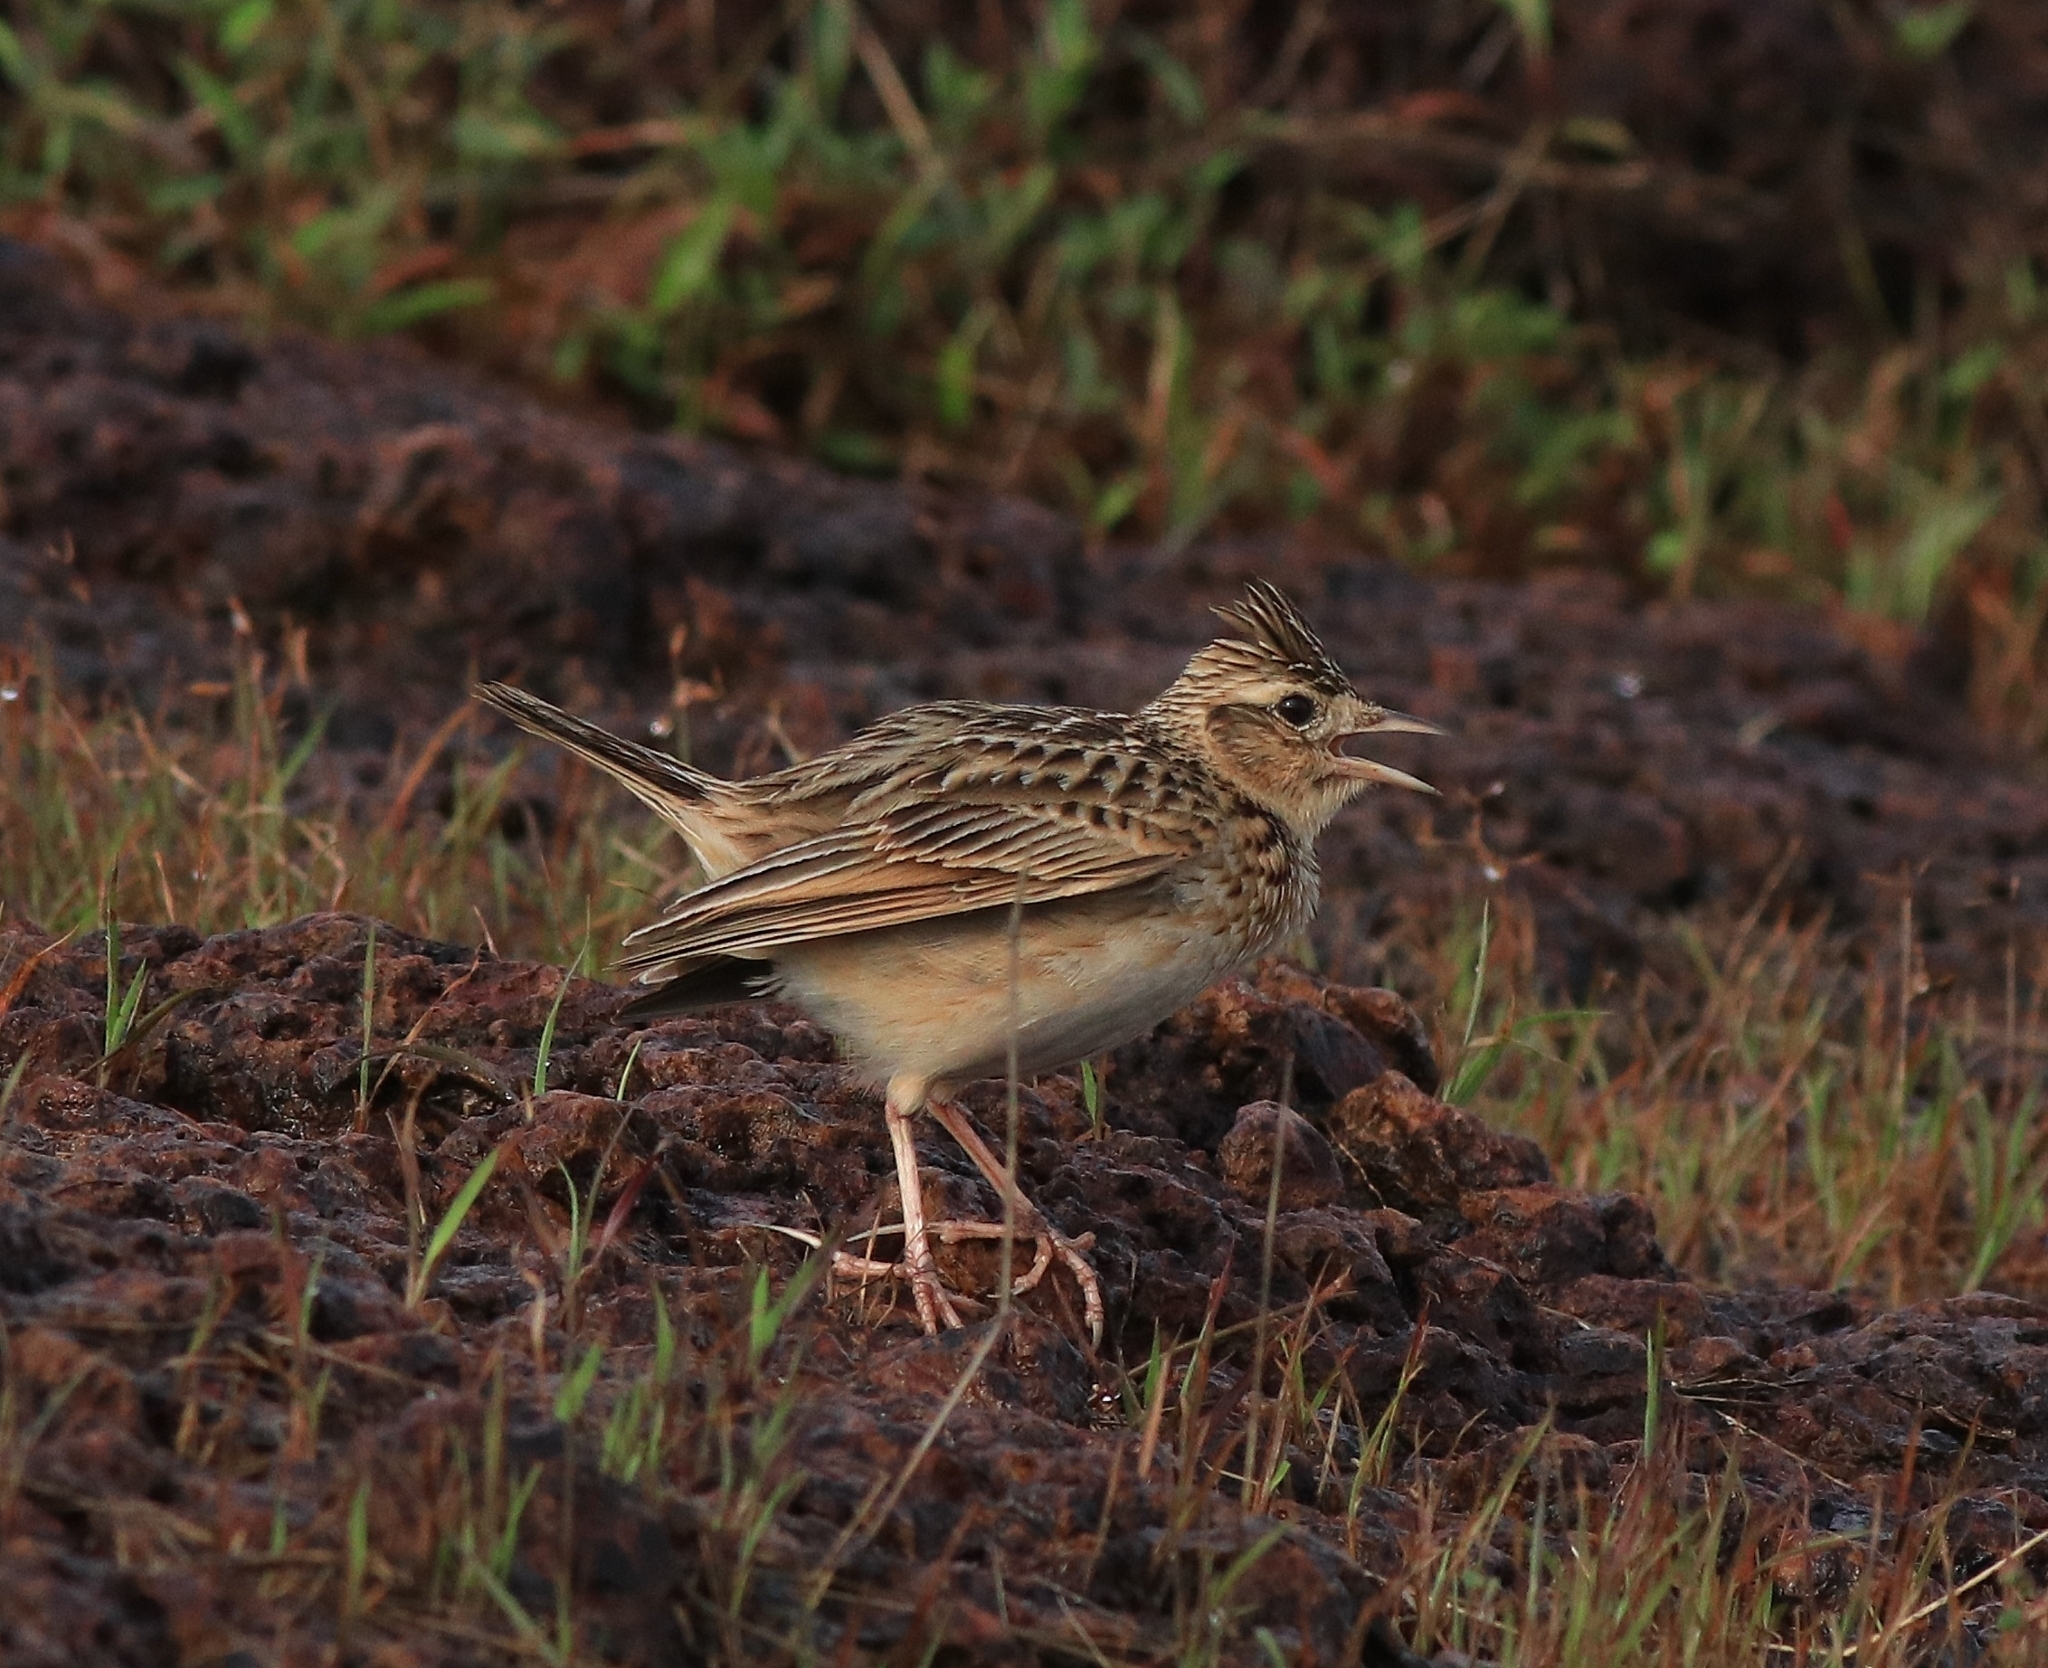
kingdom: Animalia
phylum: Chordata
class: Aves
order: Passeriformes
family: Alaudidae
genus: Alauda
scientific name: Alauda gulgula
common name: Oriental skylark
